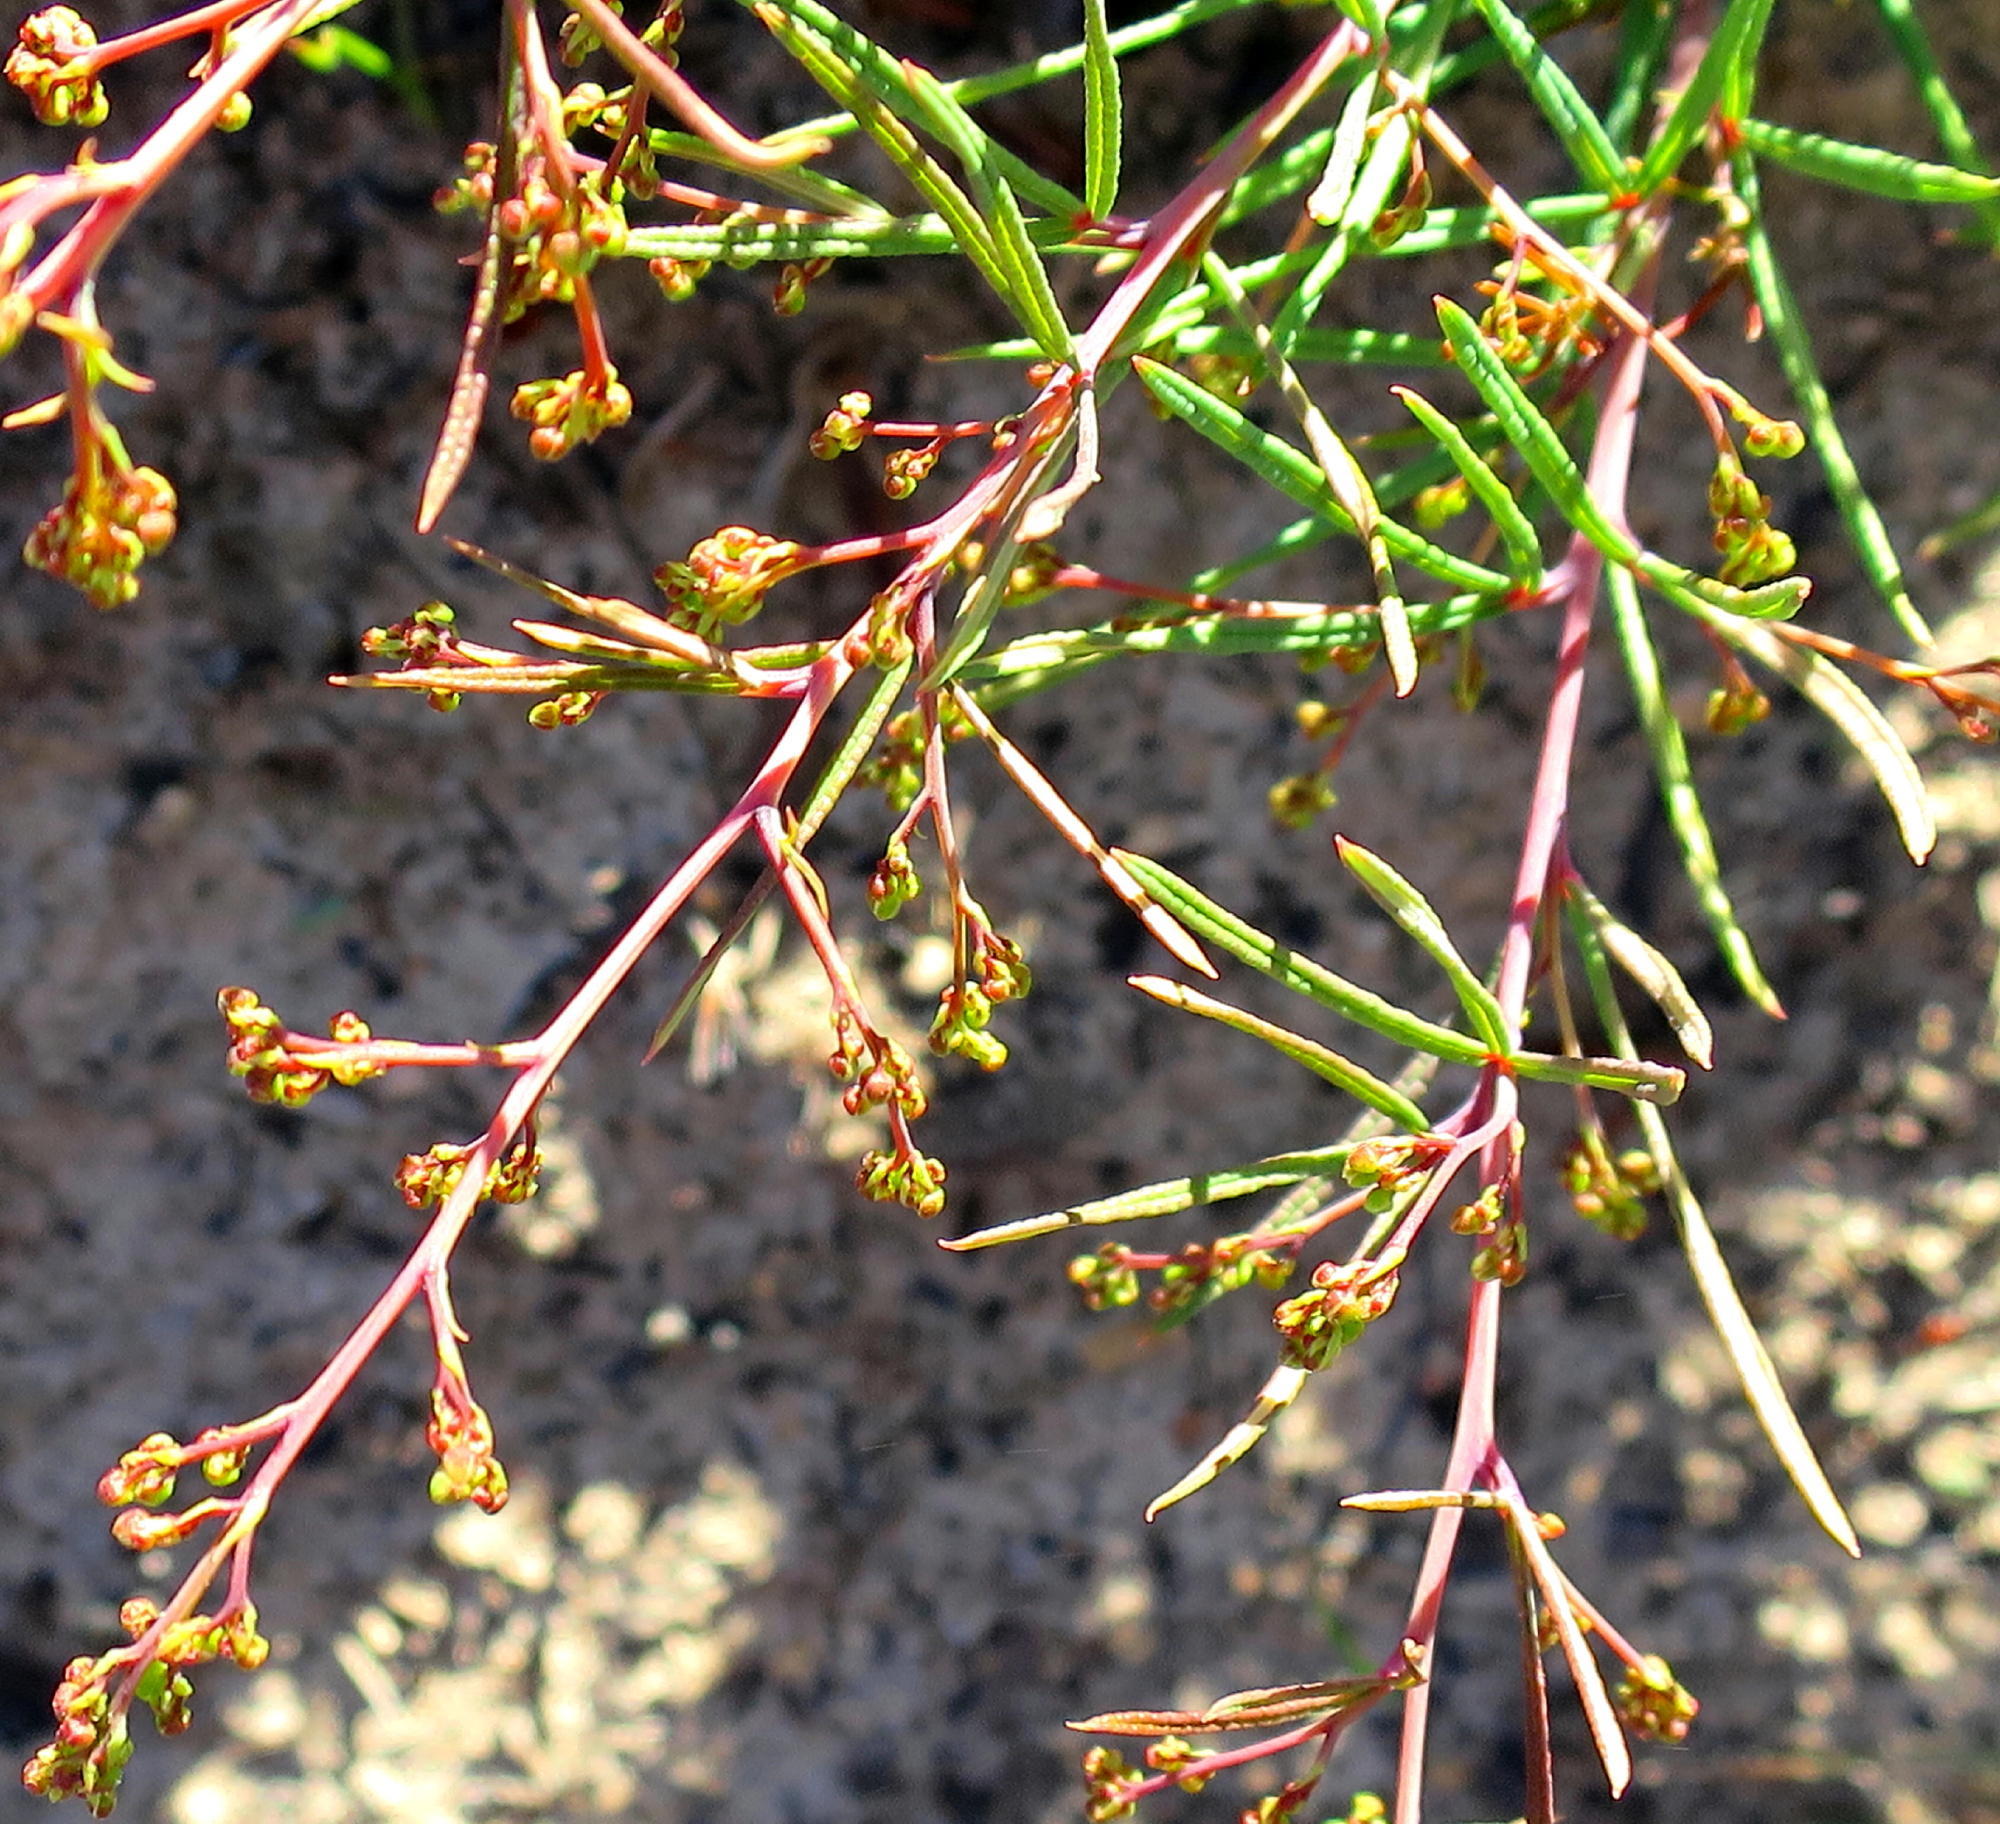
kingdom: Plantae
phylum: Tracheophyta
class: Magnoliopsida
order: Sapindales
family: Anacardiaceae
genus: Searsia
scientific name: Searsia rosmarinifolia
